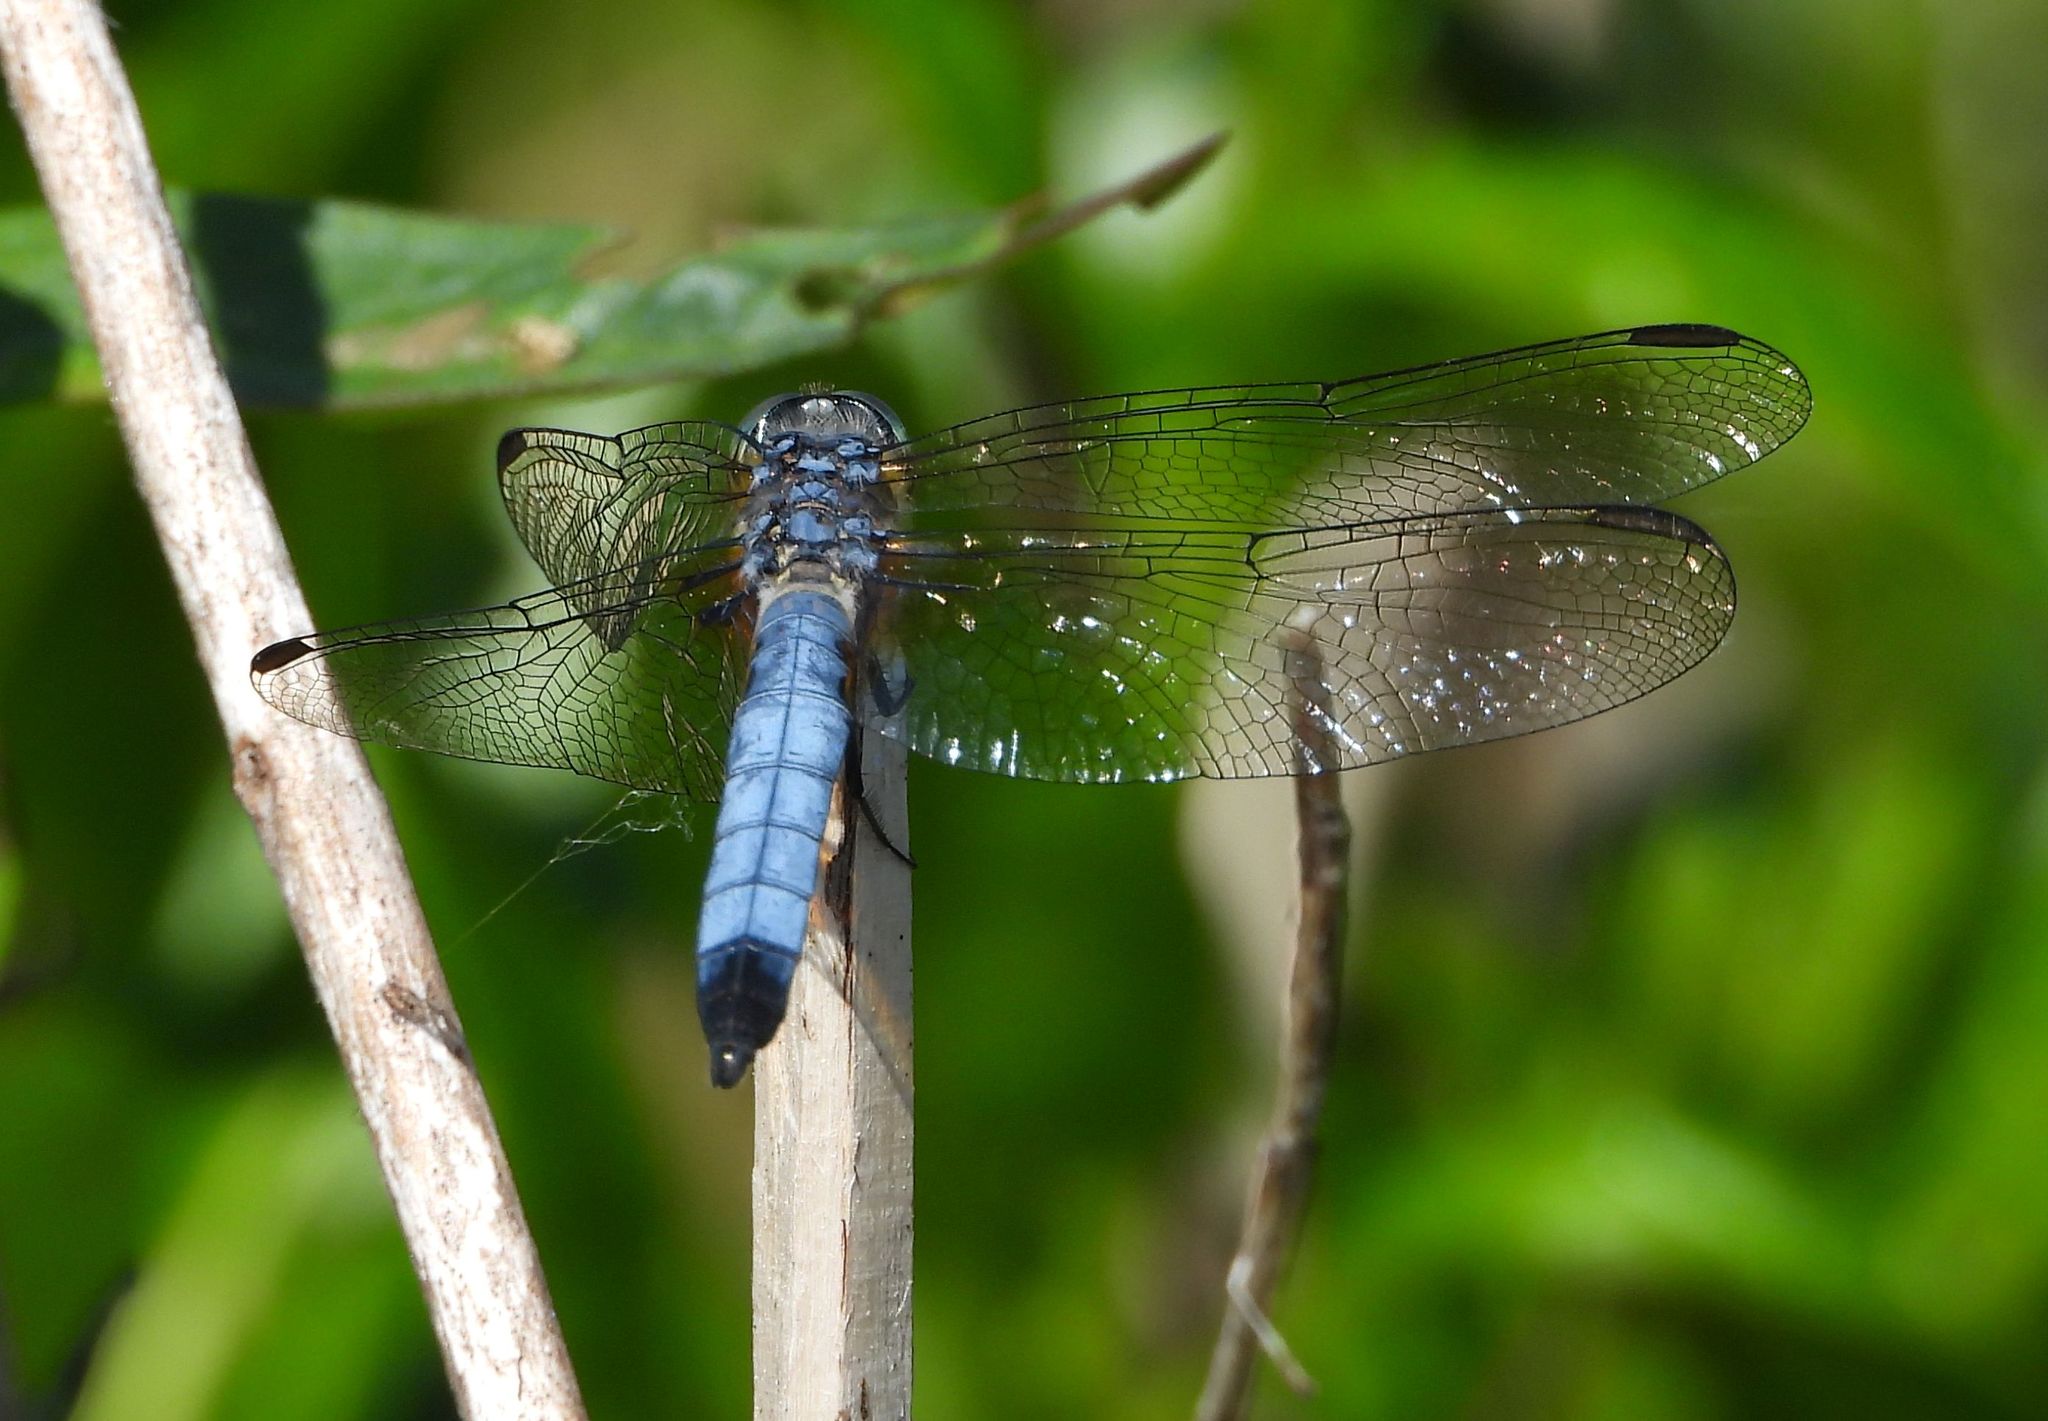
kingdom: Animalia
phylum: Arthropoda
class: Insecta
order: Odonata
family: Libellulidae
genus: Pachydiplax
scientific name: Pachydiplax longipennis
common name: Blue dasher
